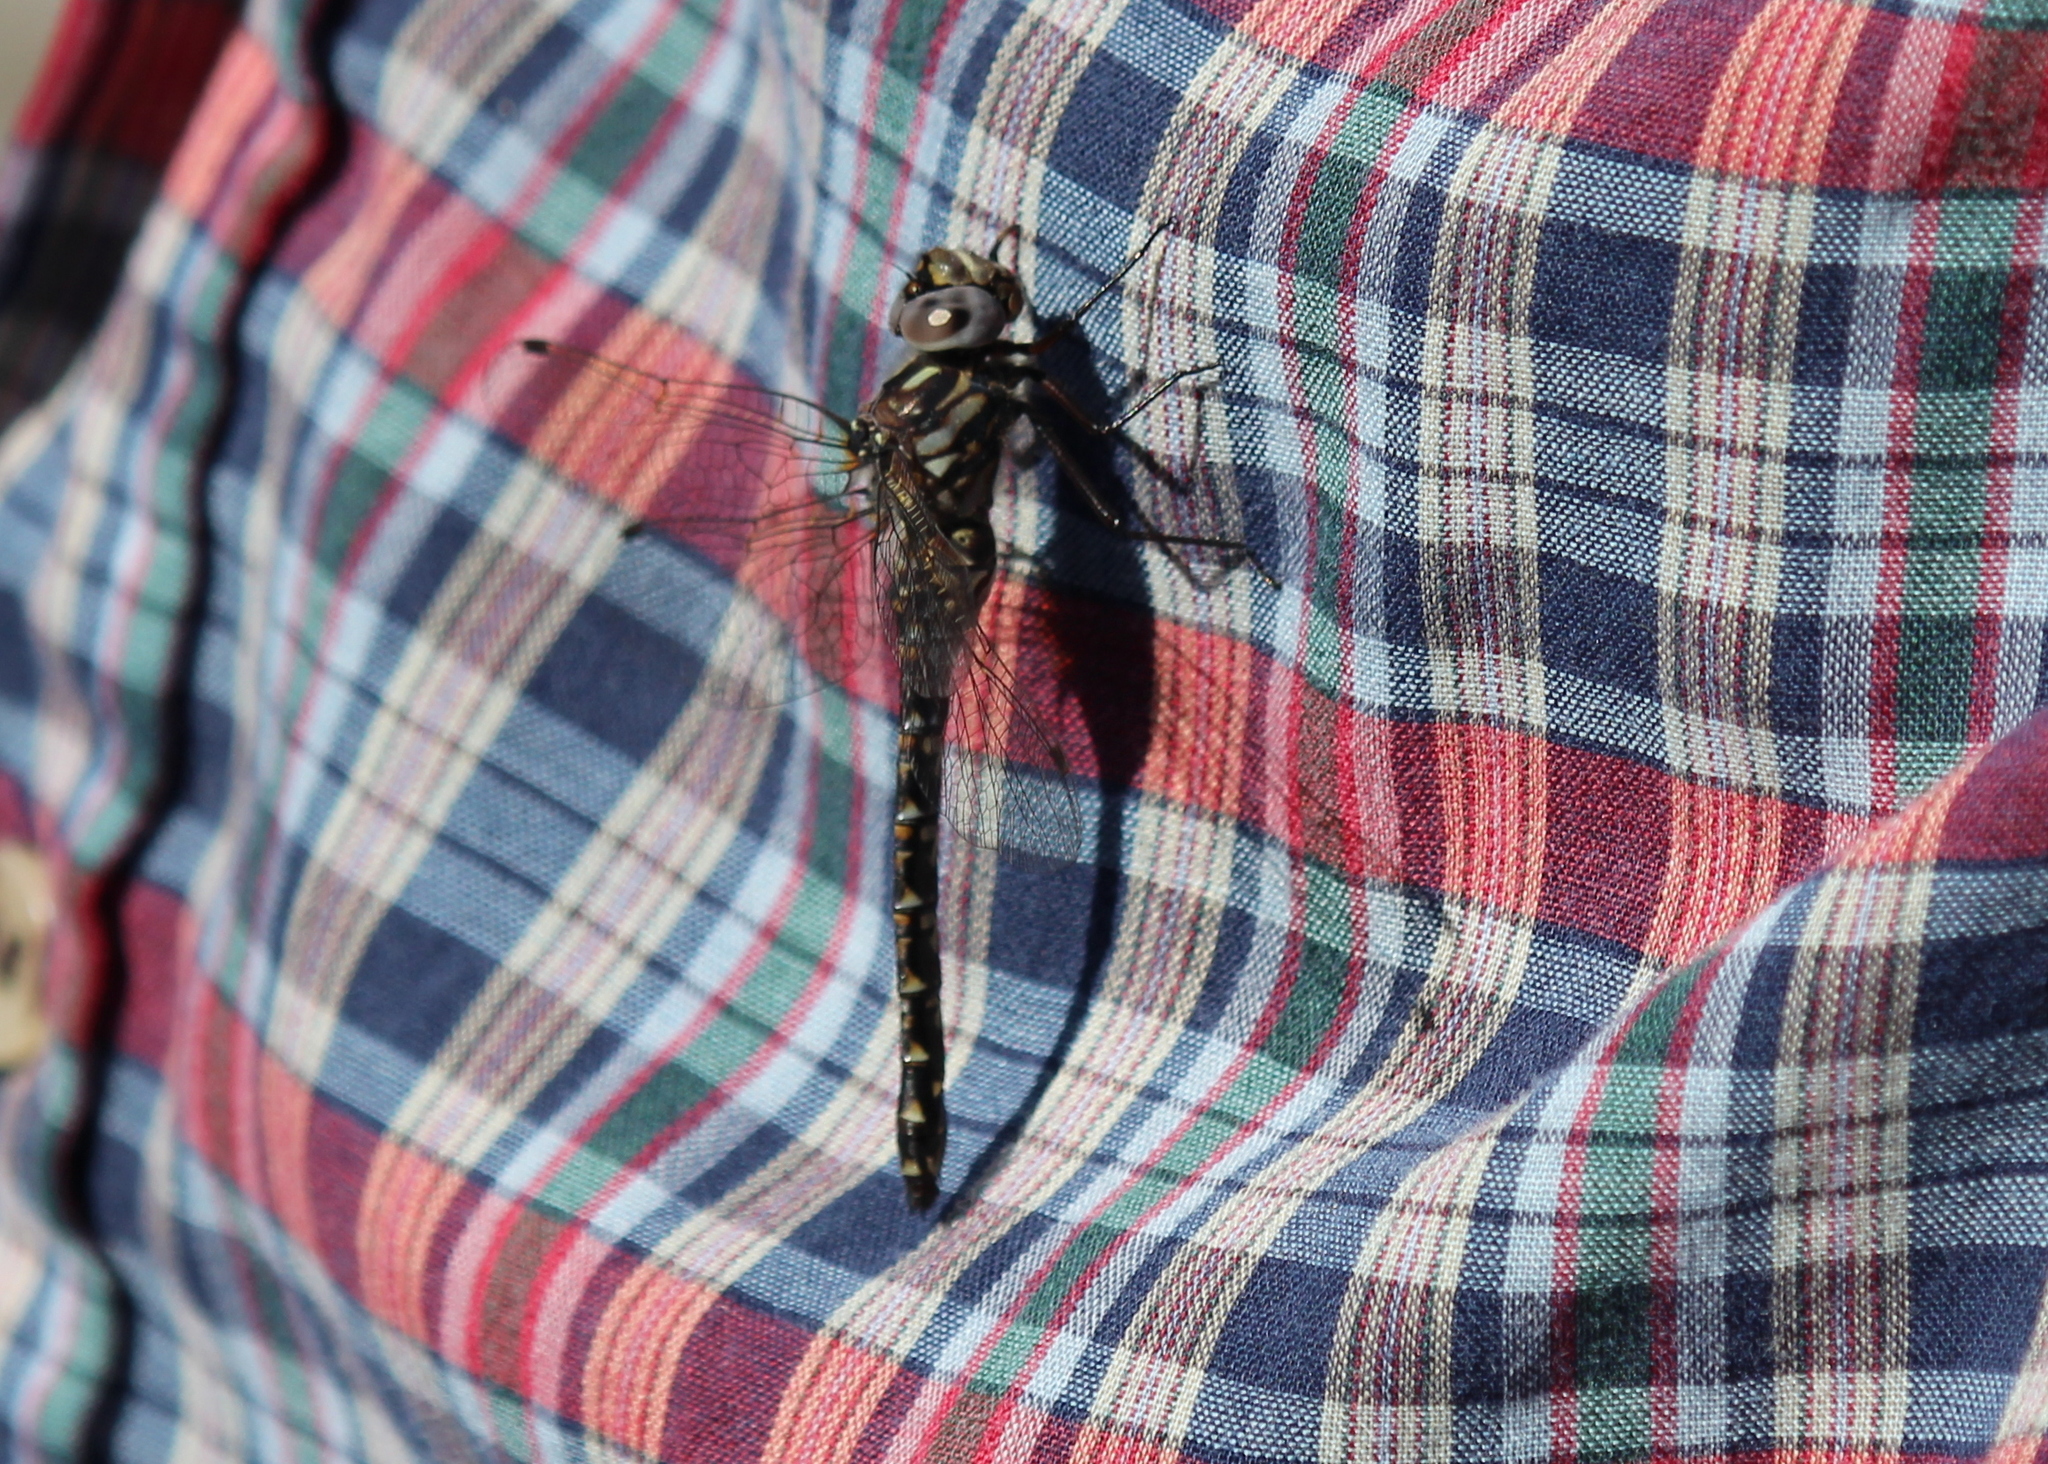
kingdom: Animalia
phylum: Arthropoda
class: Insecta
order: Odonata
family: Aeshnidae
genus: Gomphaeschna
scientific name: Gomphaeschna furcillata
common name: Harlequin darner
